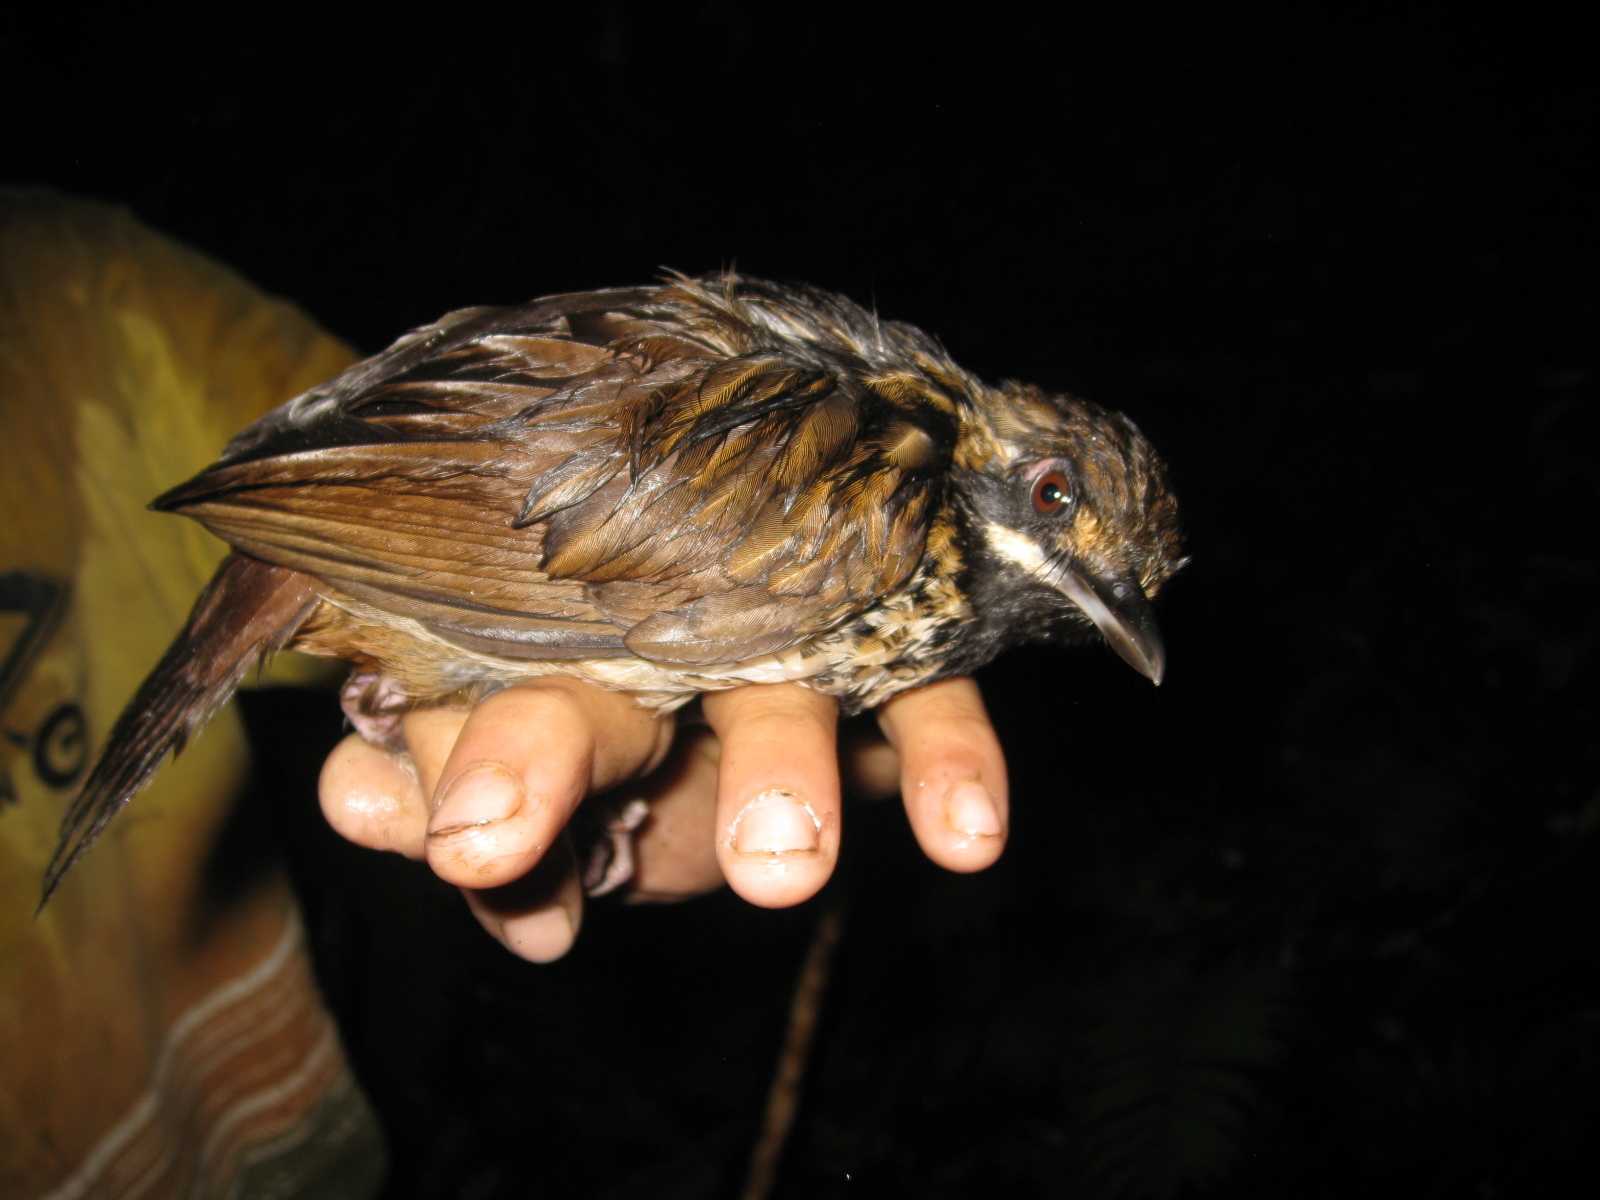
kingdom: Animalia
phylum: Chordata
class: Aves
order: Passeriformes
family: Pellorneidae
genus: Napothera
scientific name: Napothera atrigularis
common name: Black-throated wren-babbler
